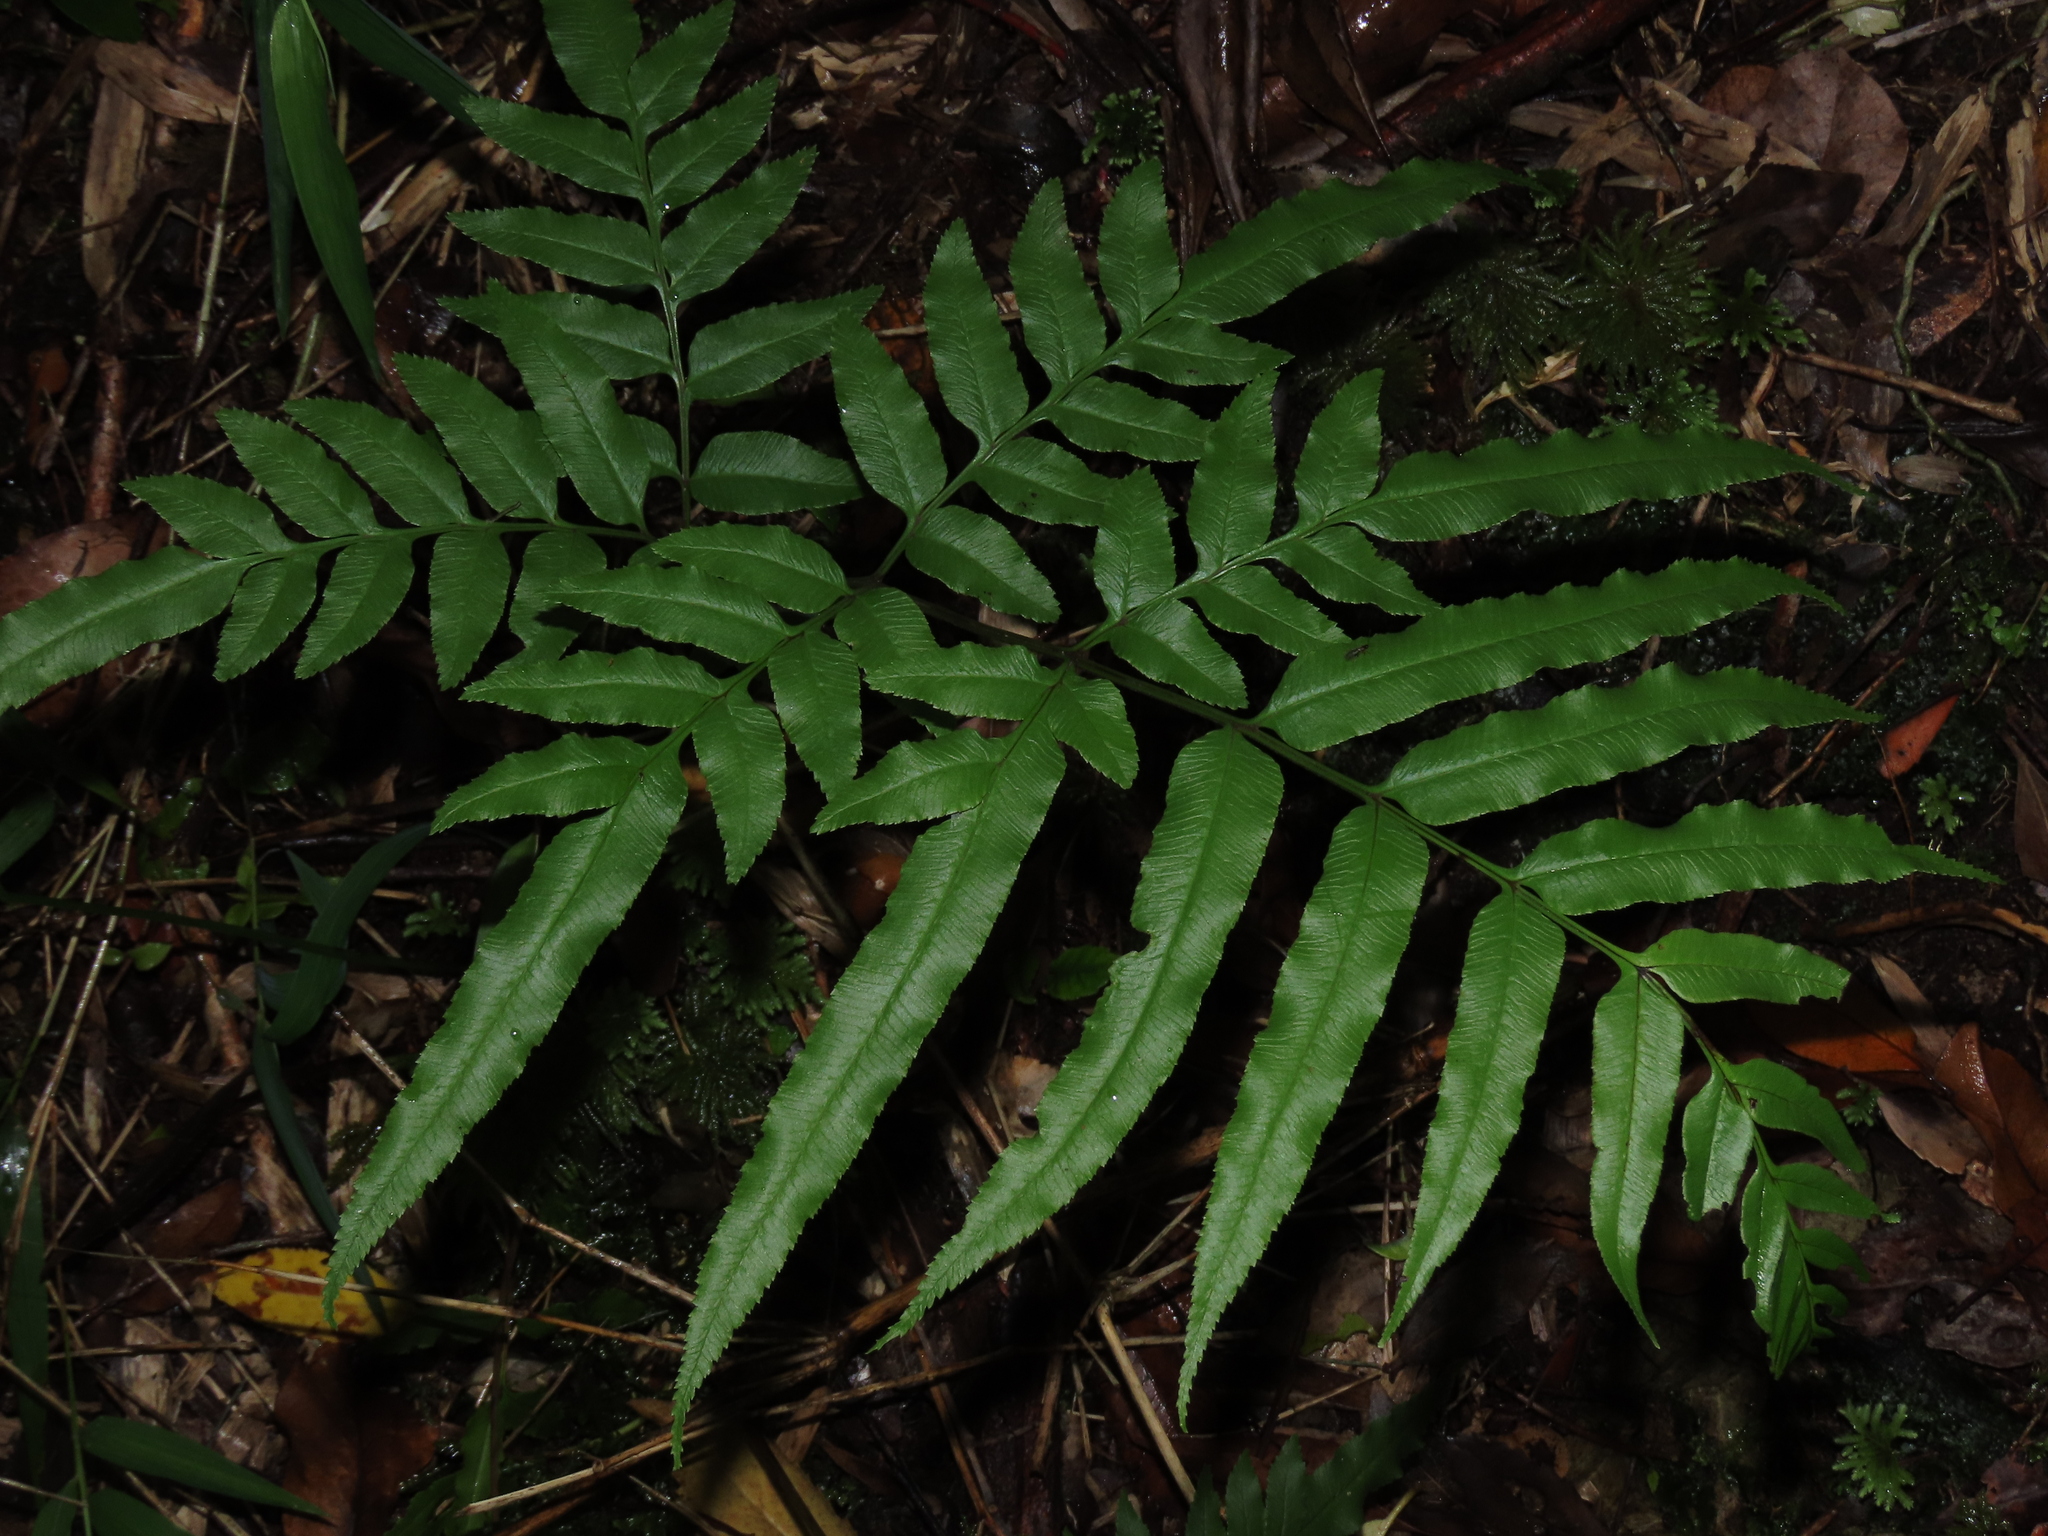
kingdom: Plantae
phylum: Tracheophyta
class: Polypodiopsida
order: Polypodiales
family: Pteridaceae
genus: Pteris
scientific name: Pteris semiadnata
